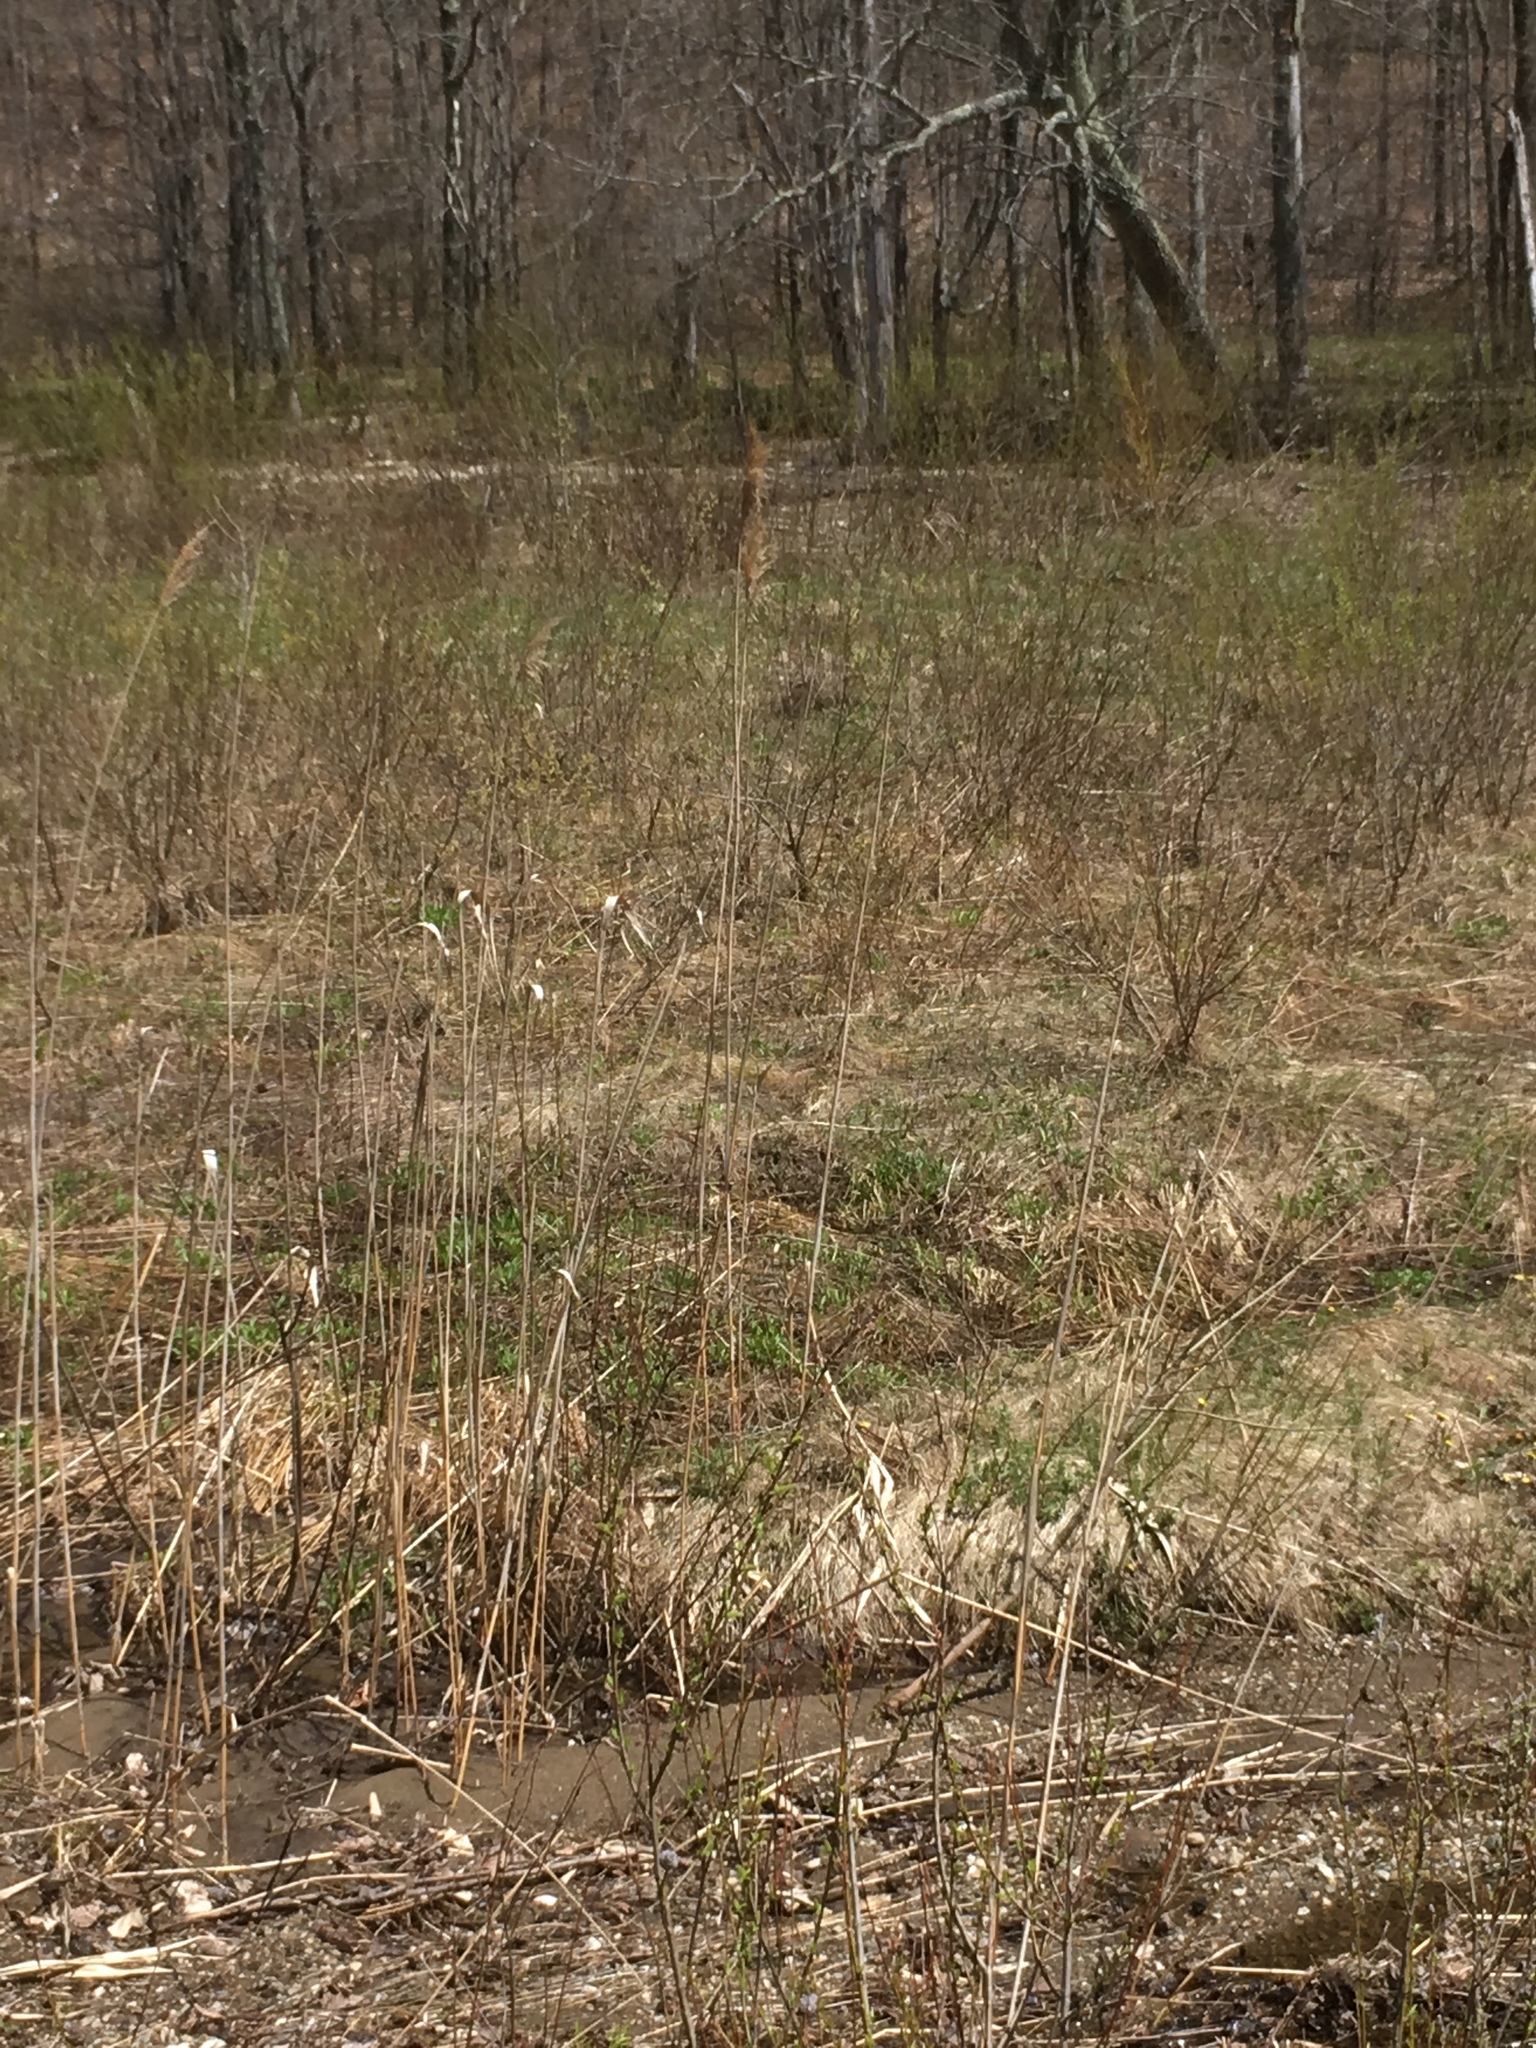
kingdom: Plantae
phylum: Tracheophyta
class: Liliopsida
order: Poales
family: Poaceae
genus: Phragmites
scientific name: Phragmites australis
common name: Common reed
